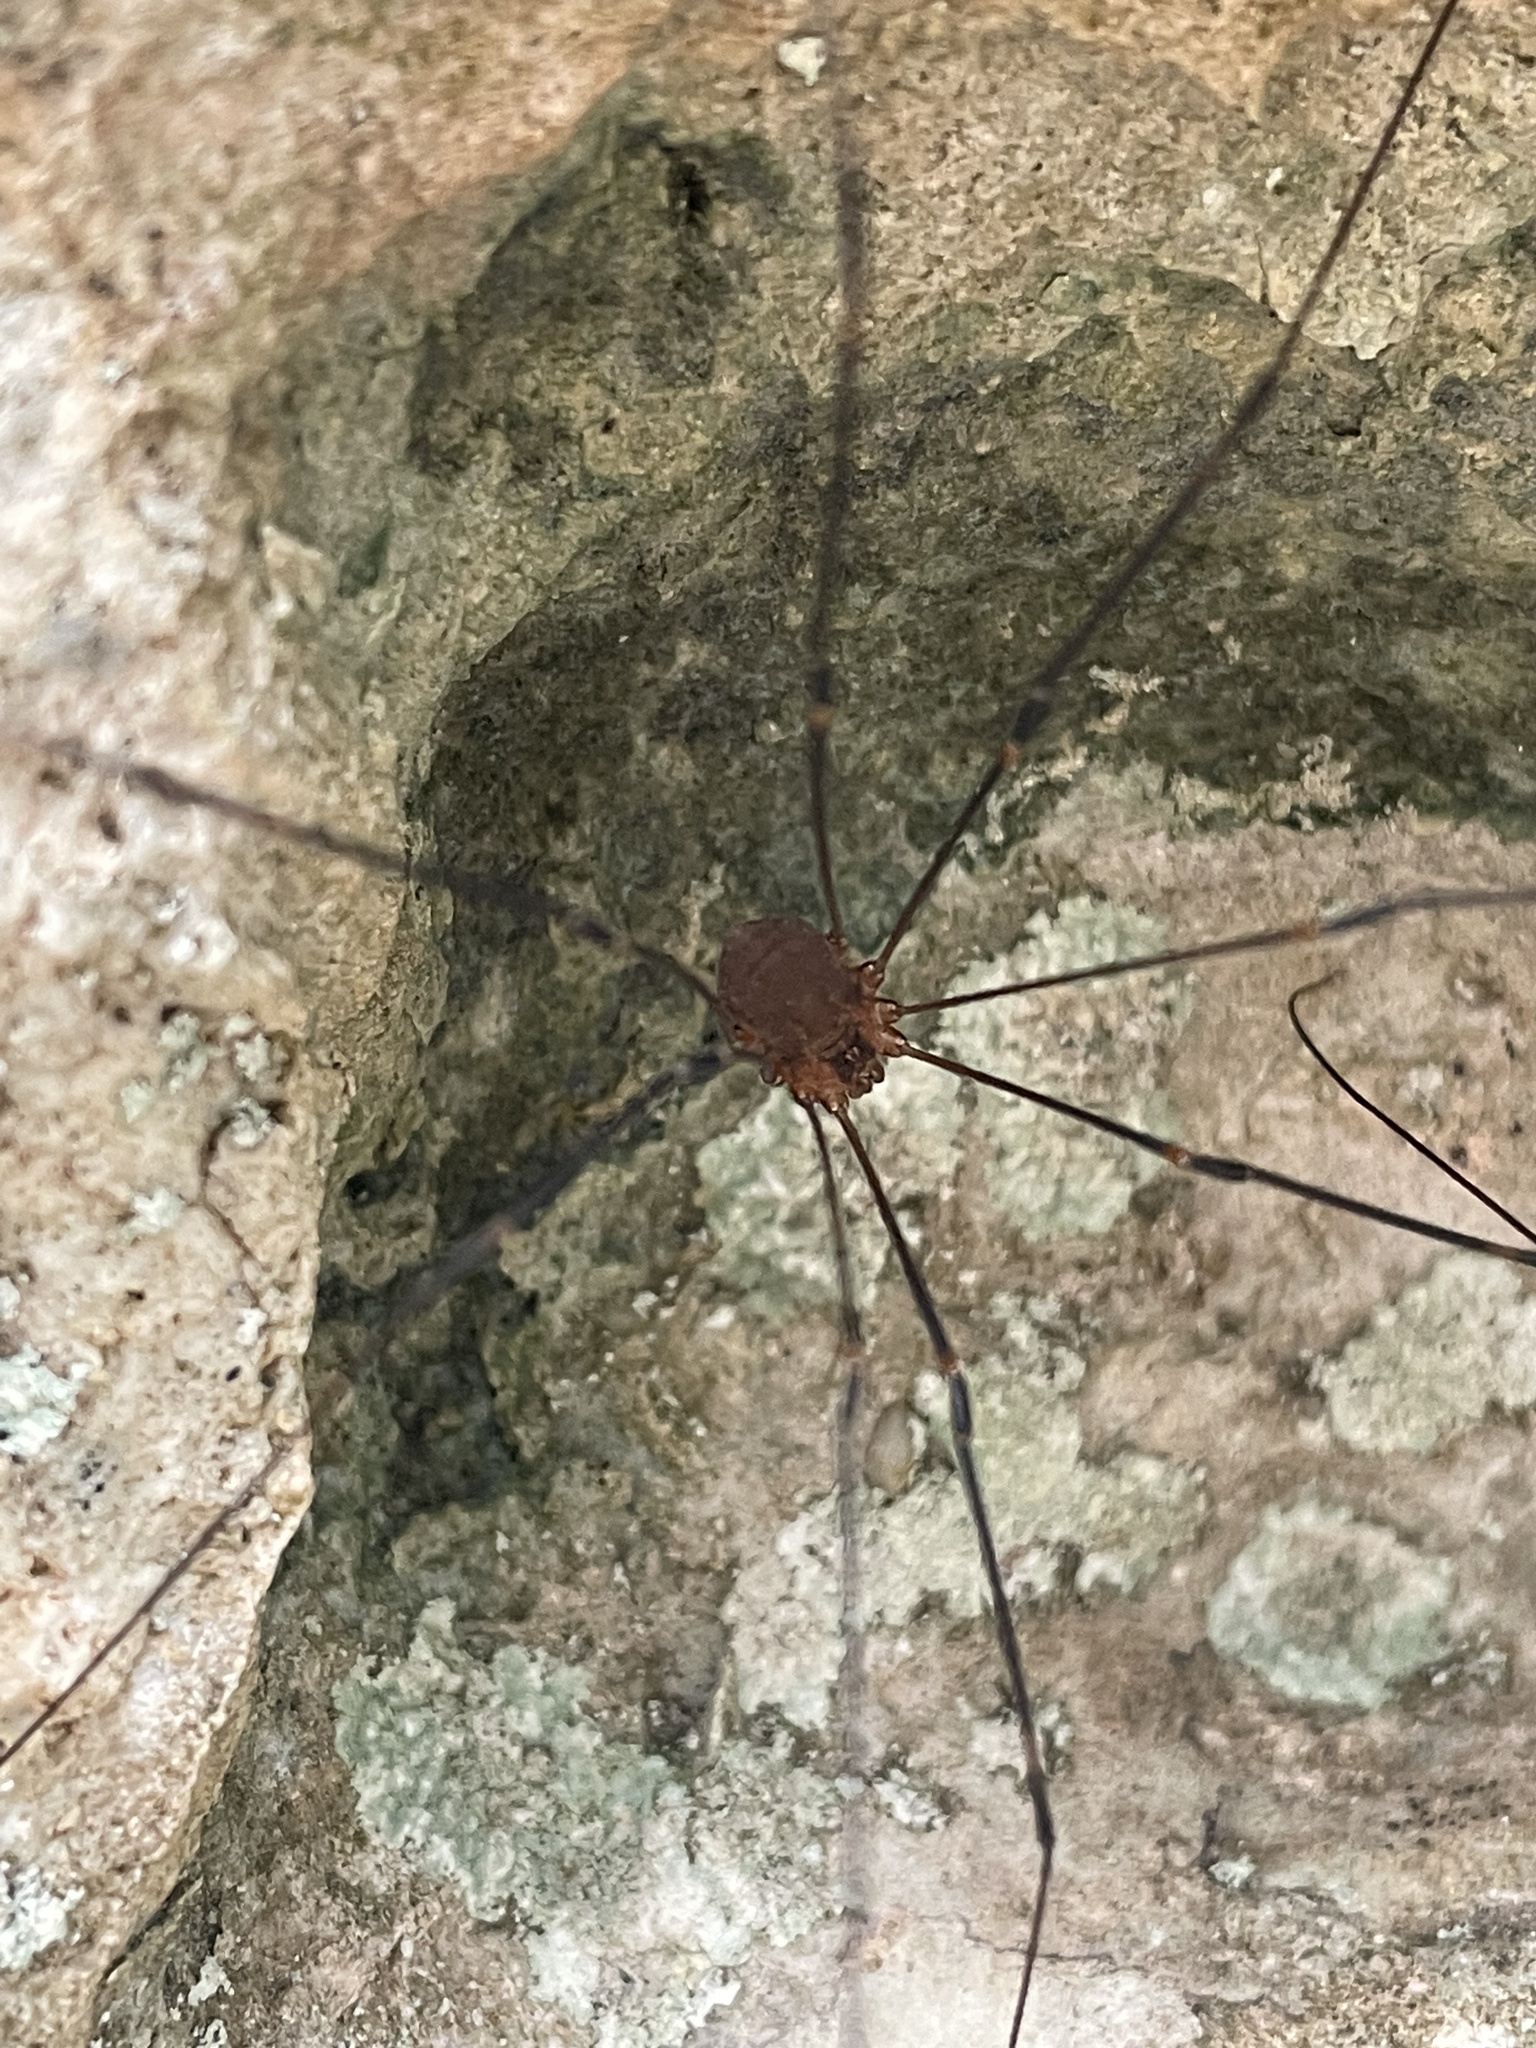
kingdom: Animalia
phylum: Arthropoda
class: Arachnida
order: Opiliones
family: Sclerosomatidae
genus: Leiobunum
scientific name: Leiobunum townsendi
